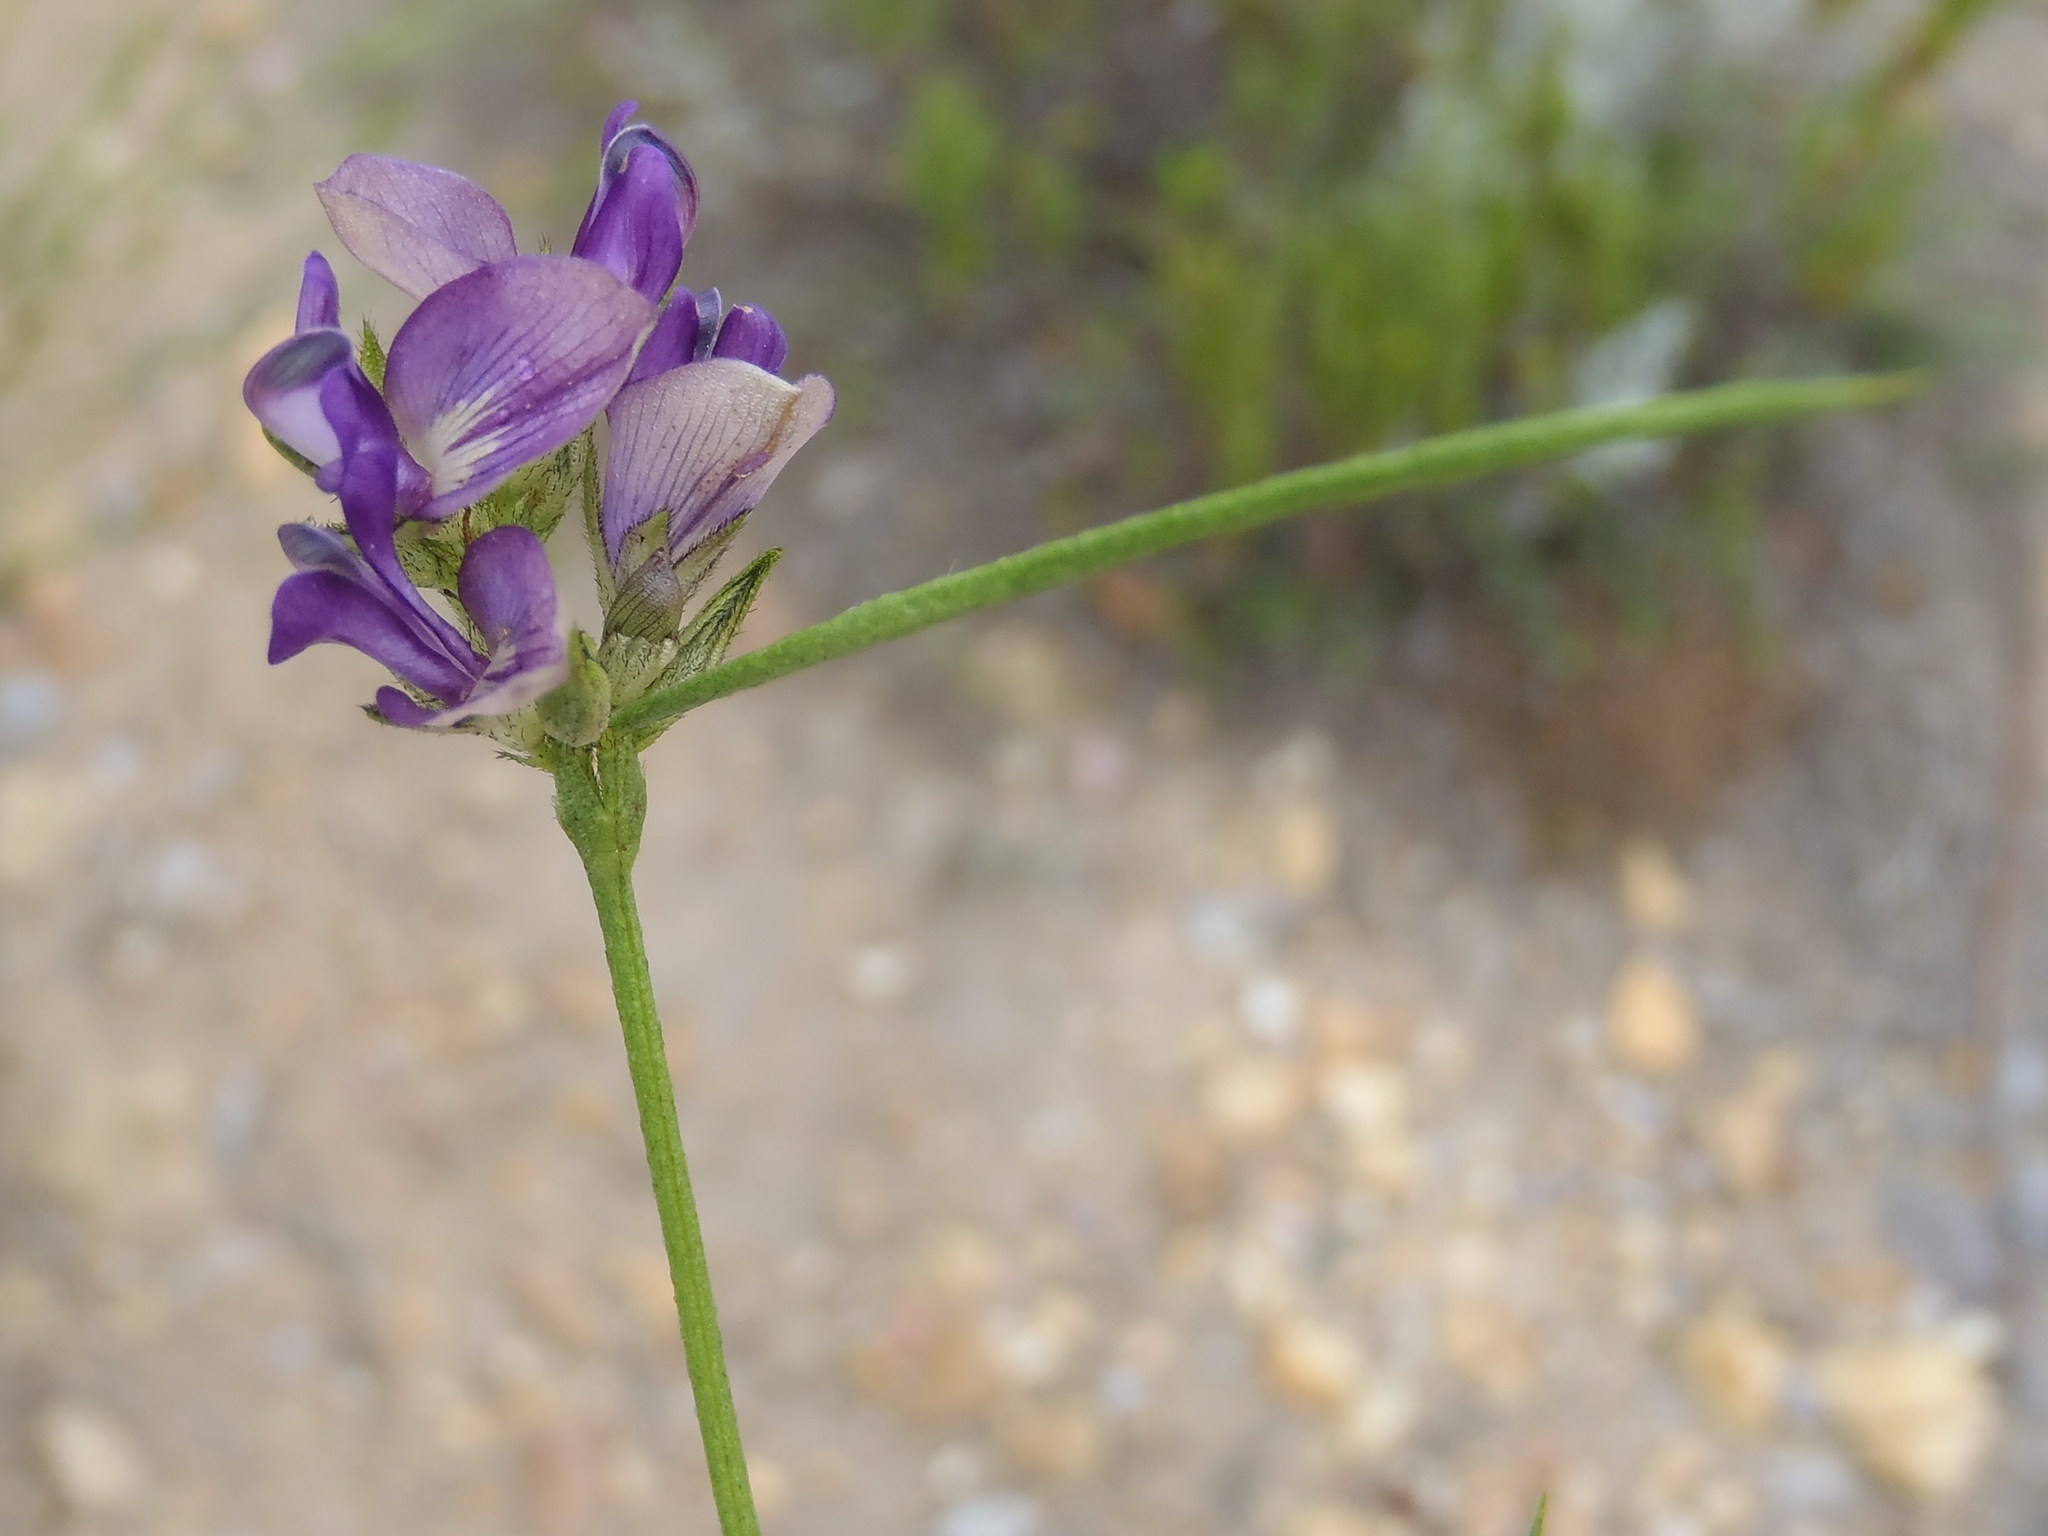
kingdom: Plantae
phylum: Tracheophyta
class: Magnoliopsida
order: Fabales
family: Fabaceae
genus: Psoralea
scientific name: Psoralea ensifolia
